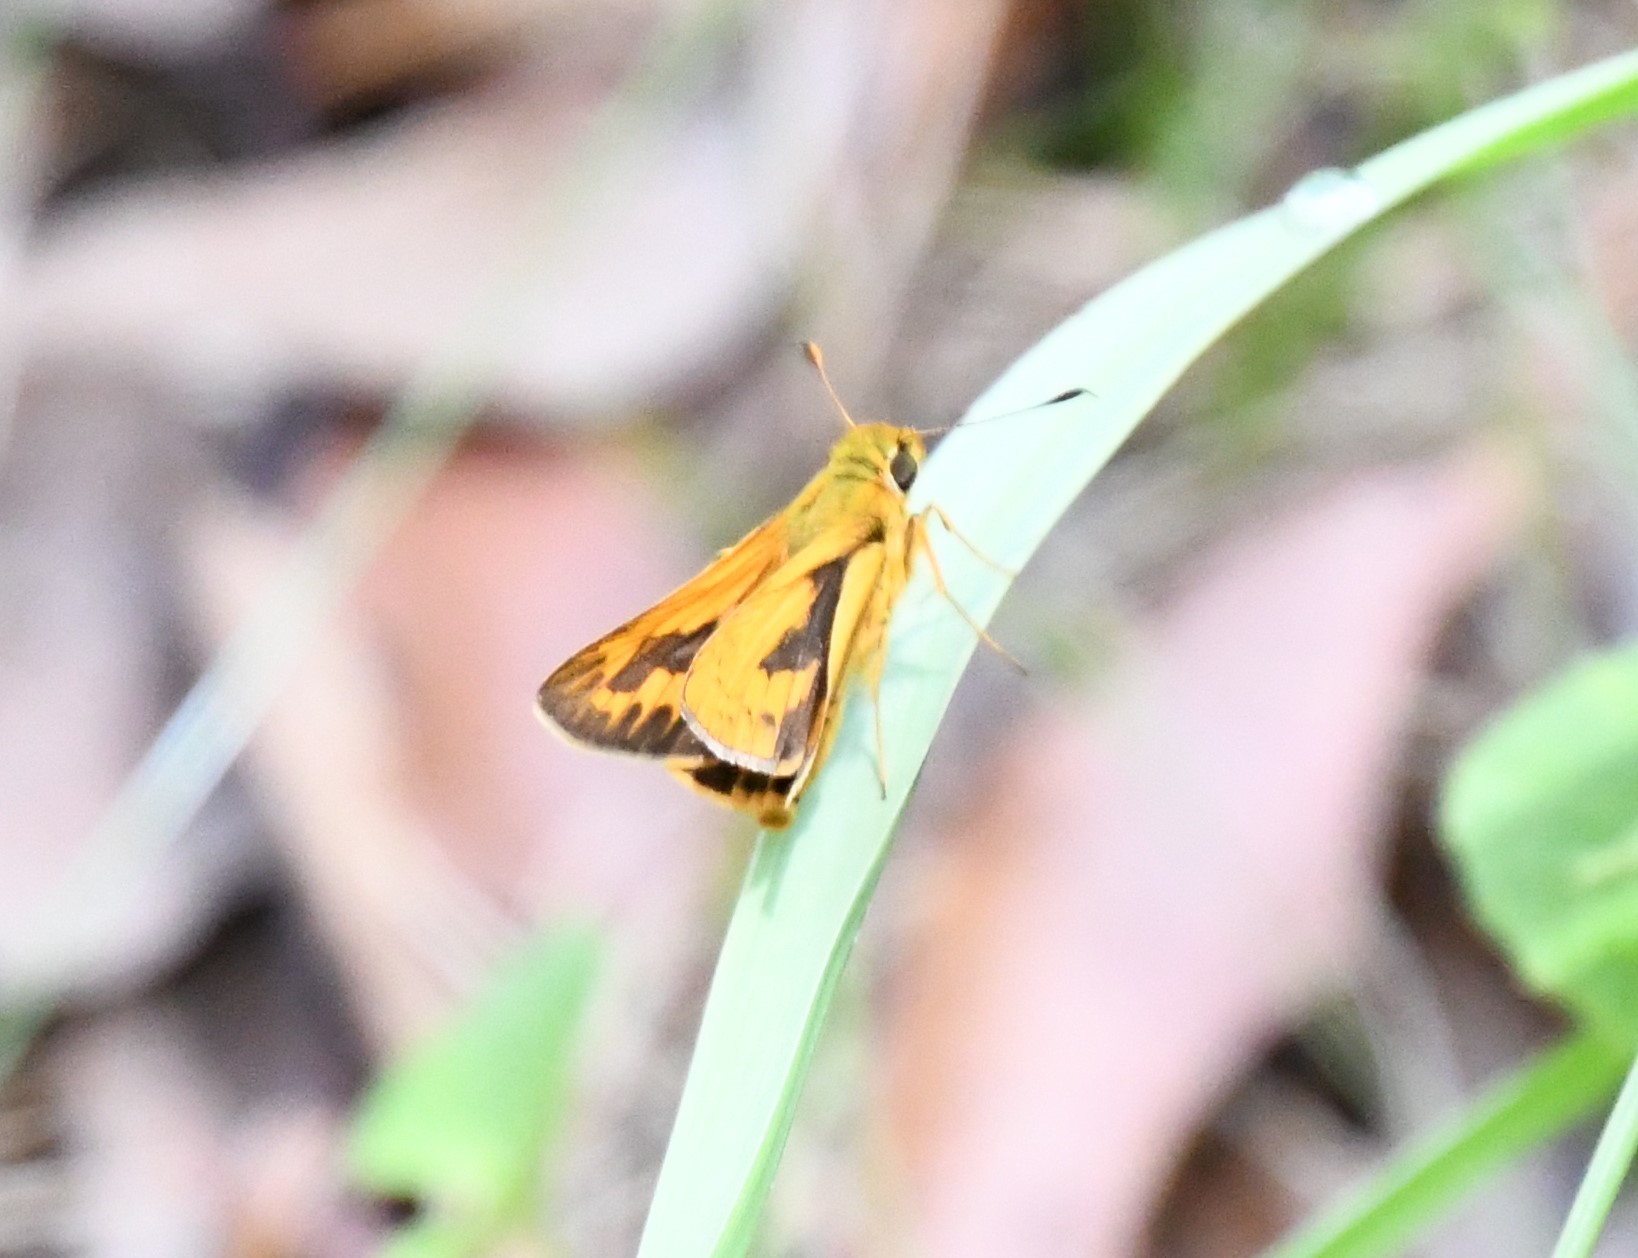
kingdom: Animalia
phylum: Arthropoda
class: Insecta
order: Lepidoptera
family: Hesperiidae
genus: Telicota
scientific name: Telicota ancilla
